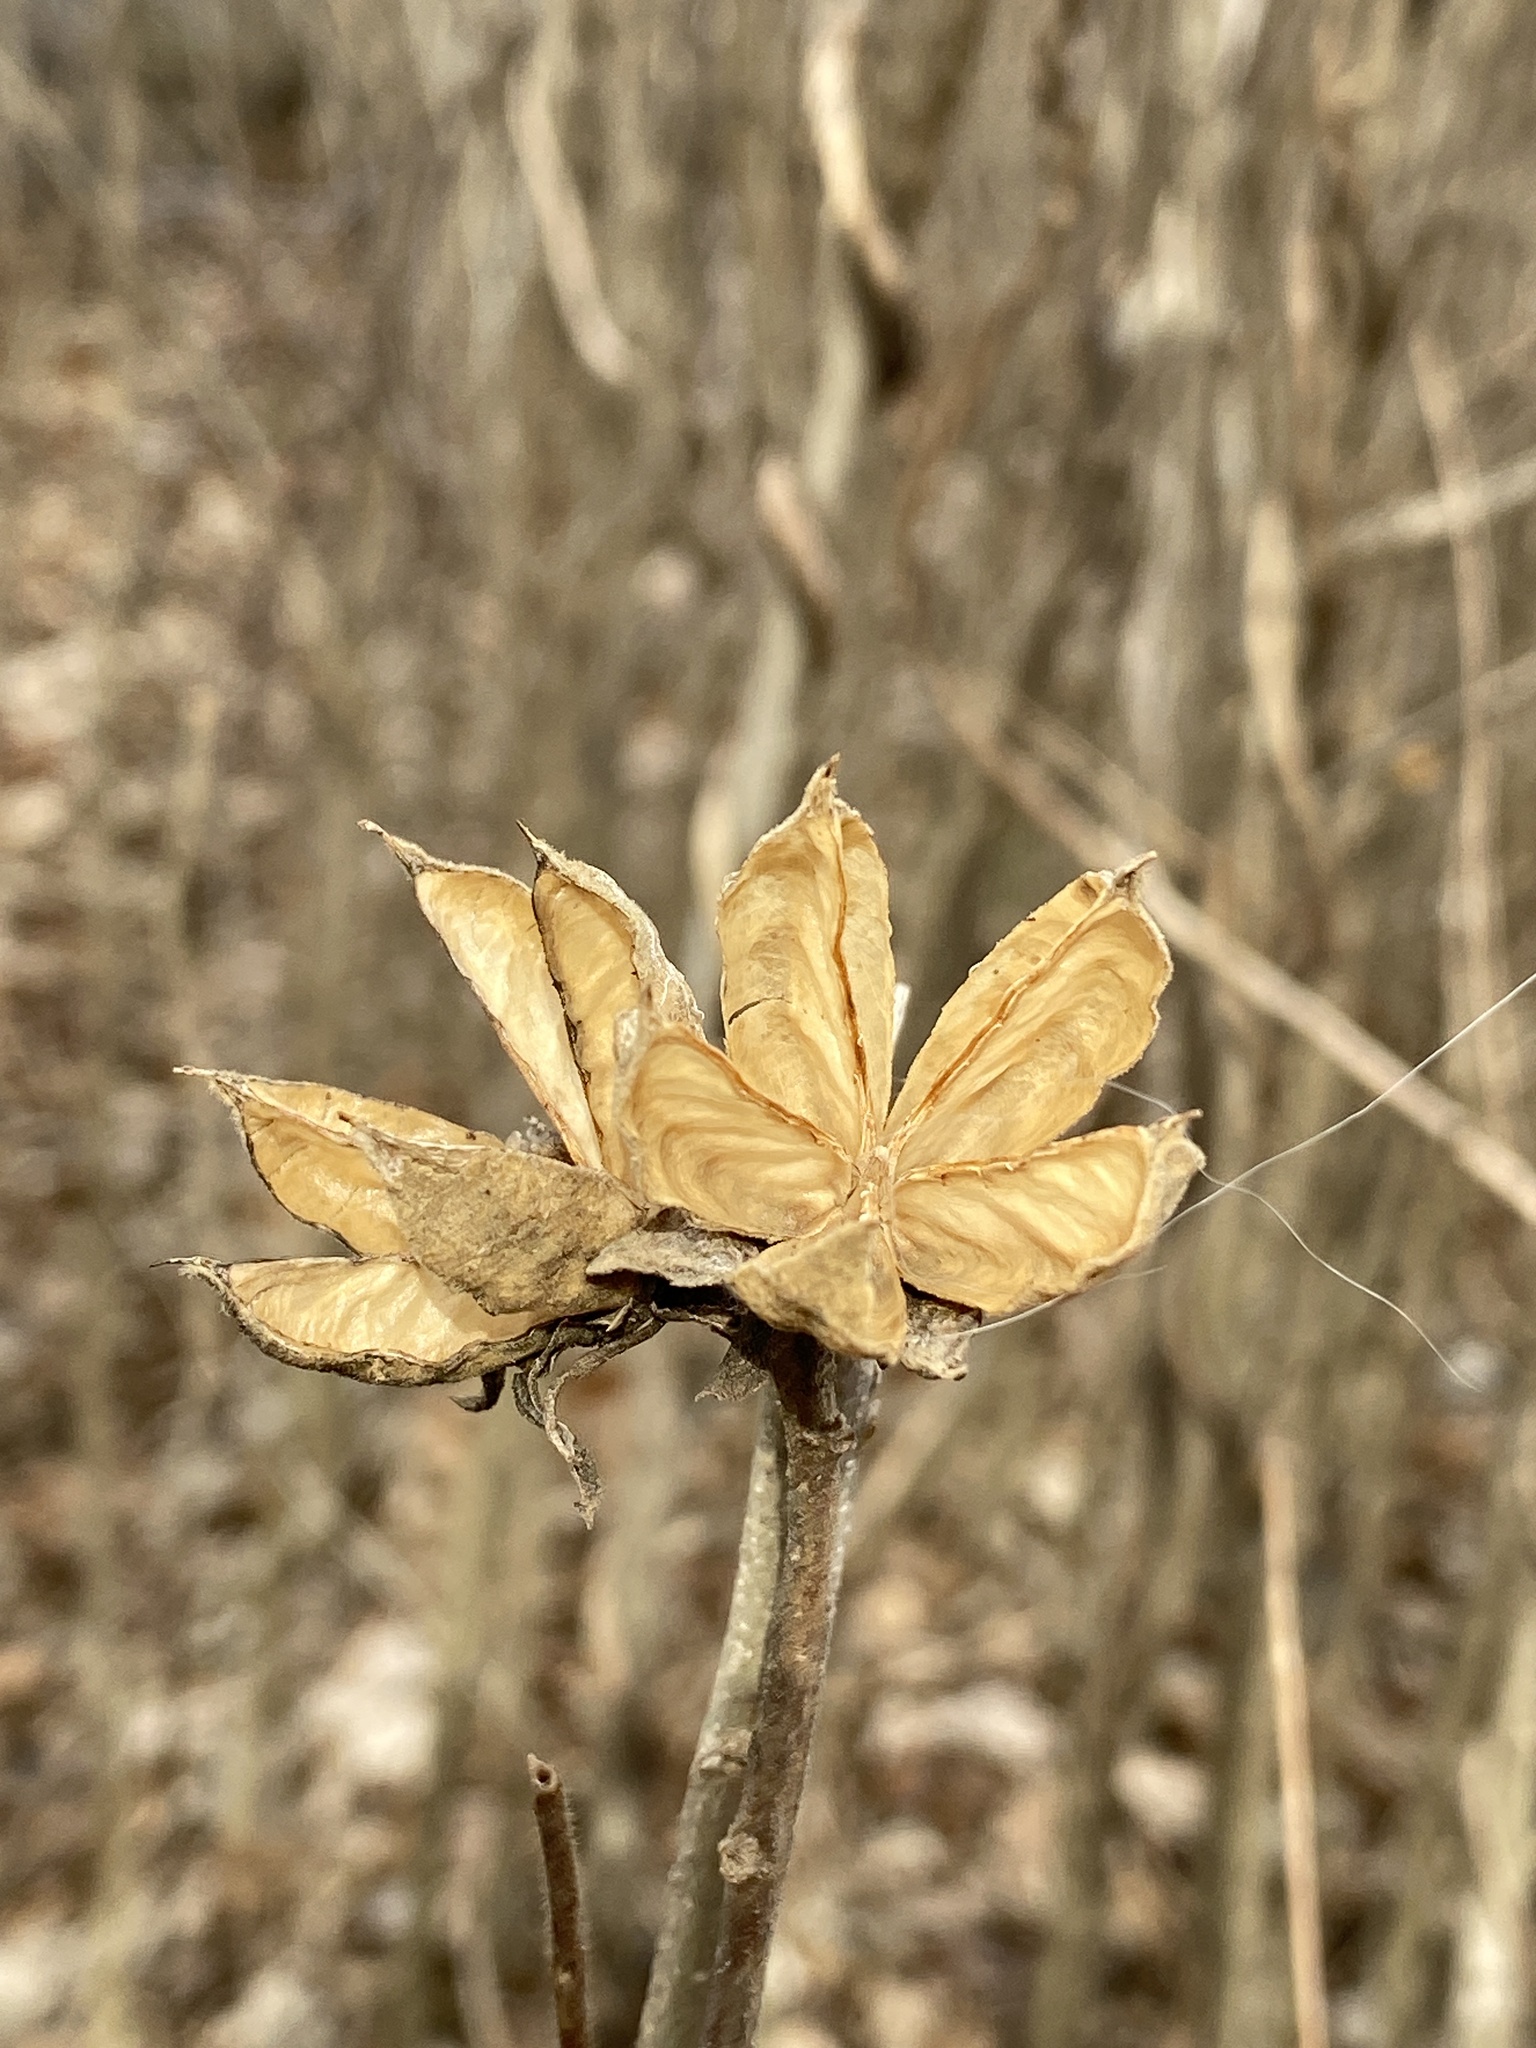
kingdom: Plantae
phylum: Tracheophyta
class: Magnoliopsida
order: Malvales
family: Malvaceae
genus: Hibiscus
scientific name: Hibiscus syriacus
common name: Syrian ketmia
